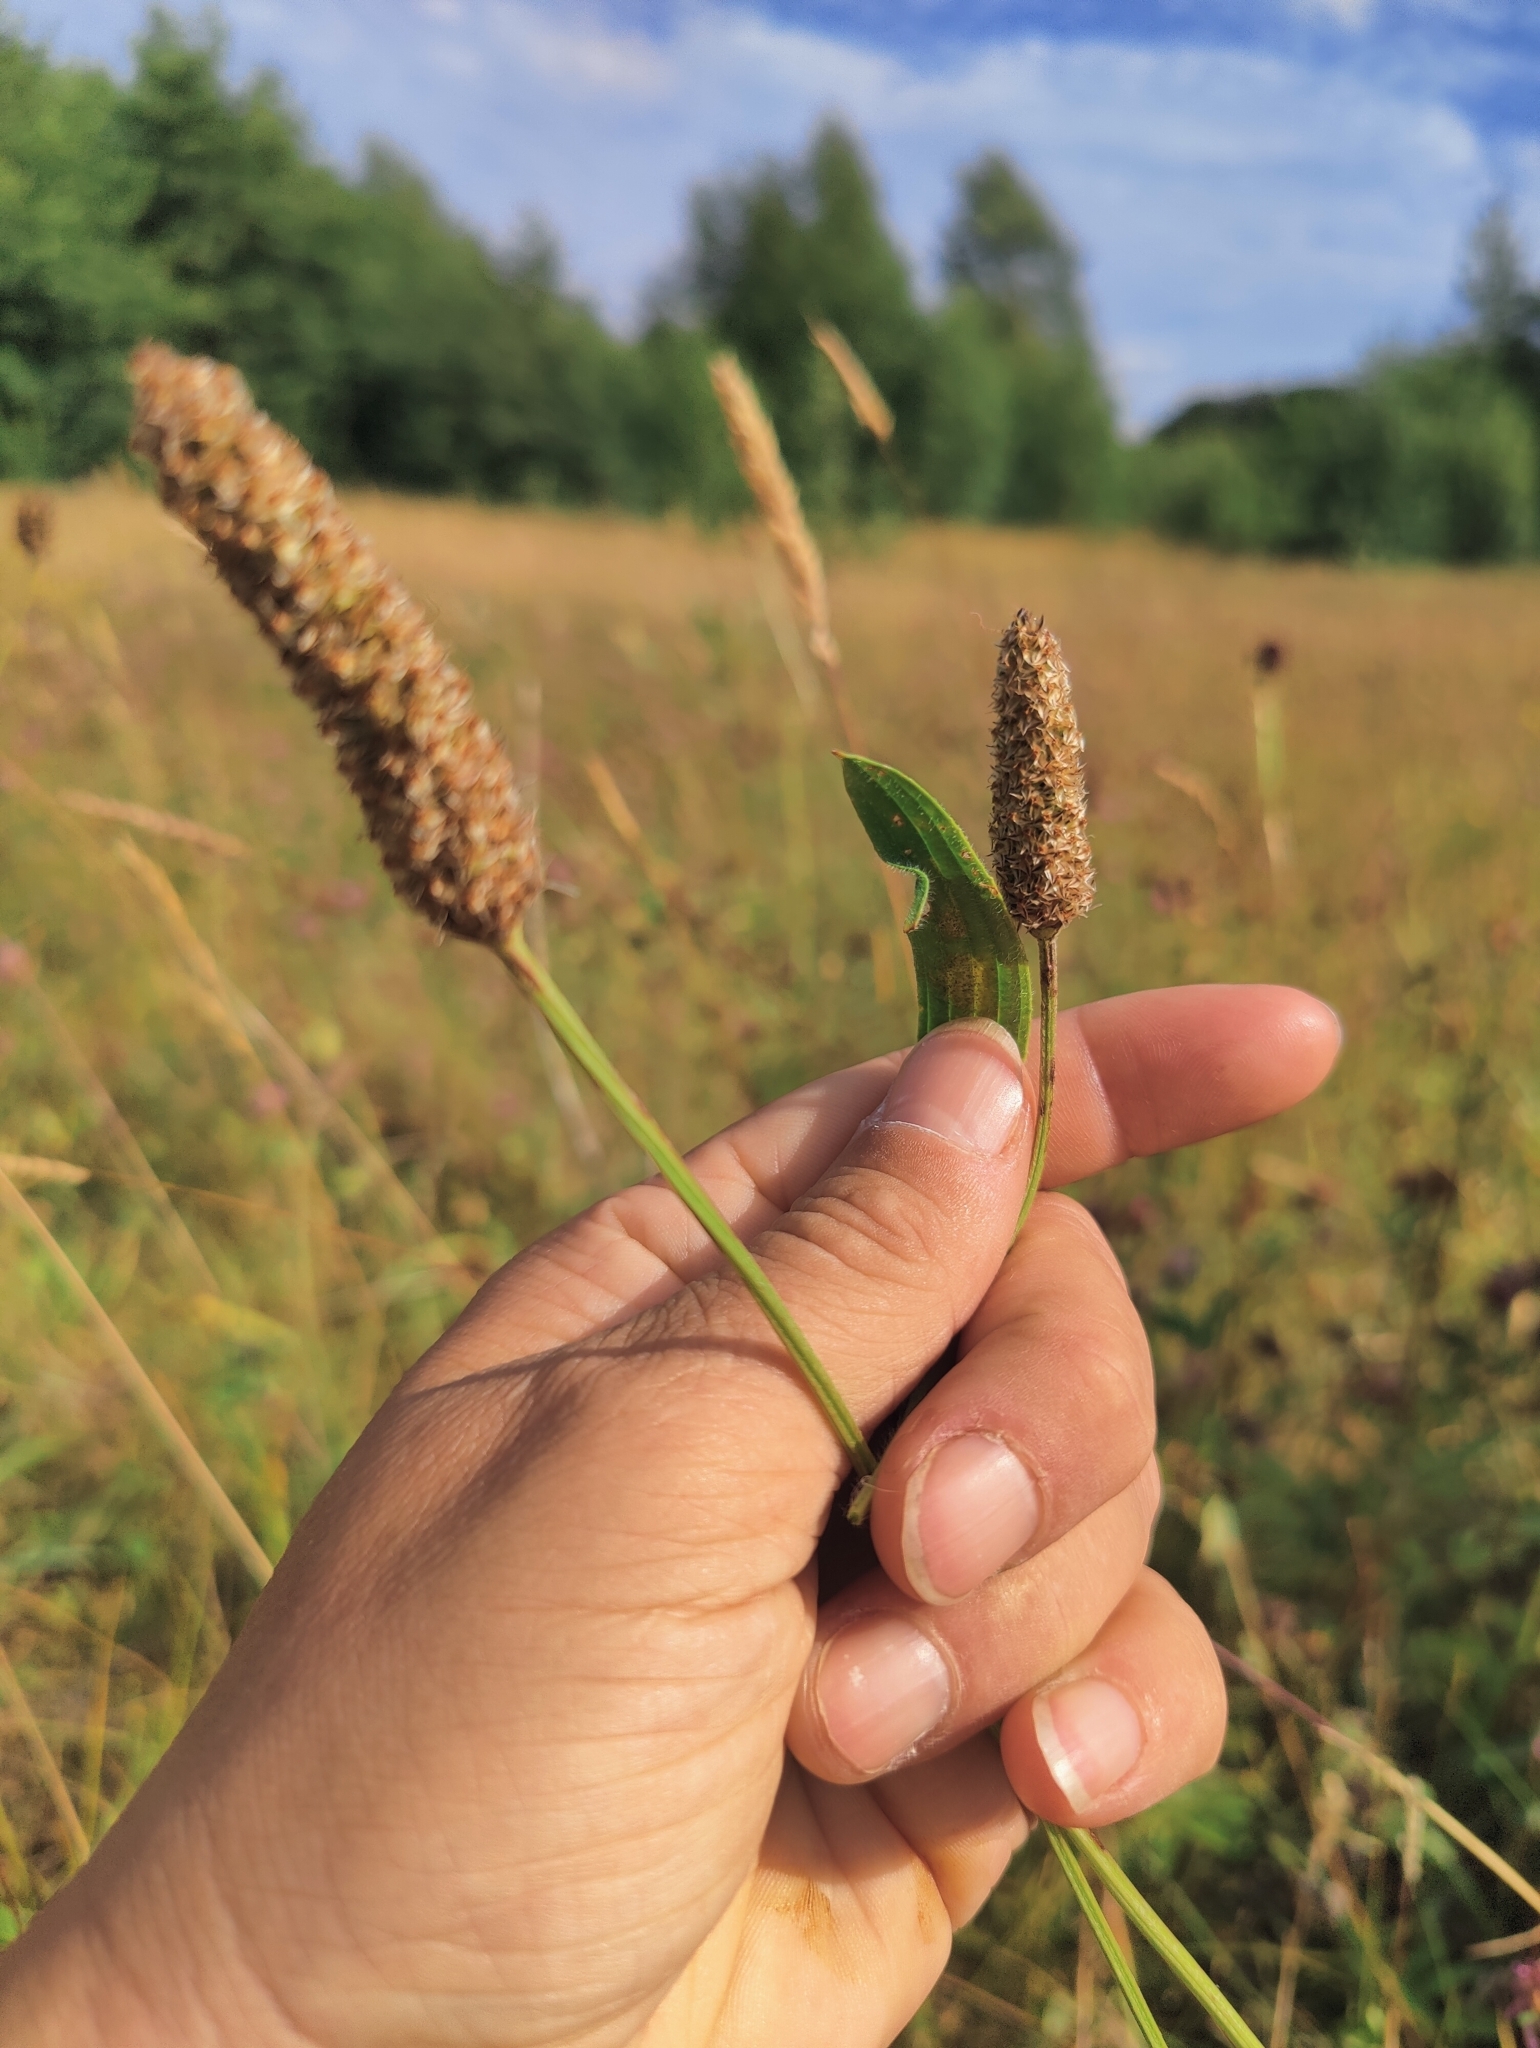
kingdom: Plantae
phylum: Tracheophyta
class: Magnoliopsida
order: Lamiales
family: Plantaginaceae
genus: Plantago
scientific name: Plantago lanceolata
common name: Ribwort plantain
